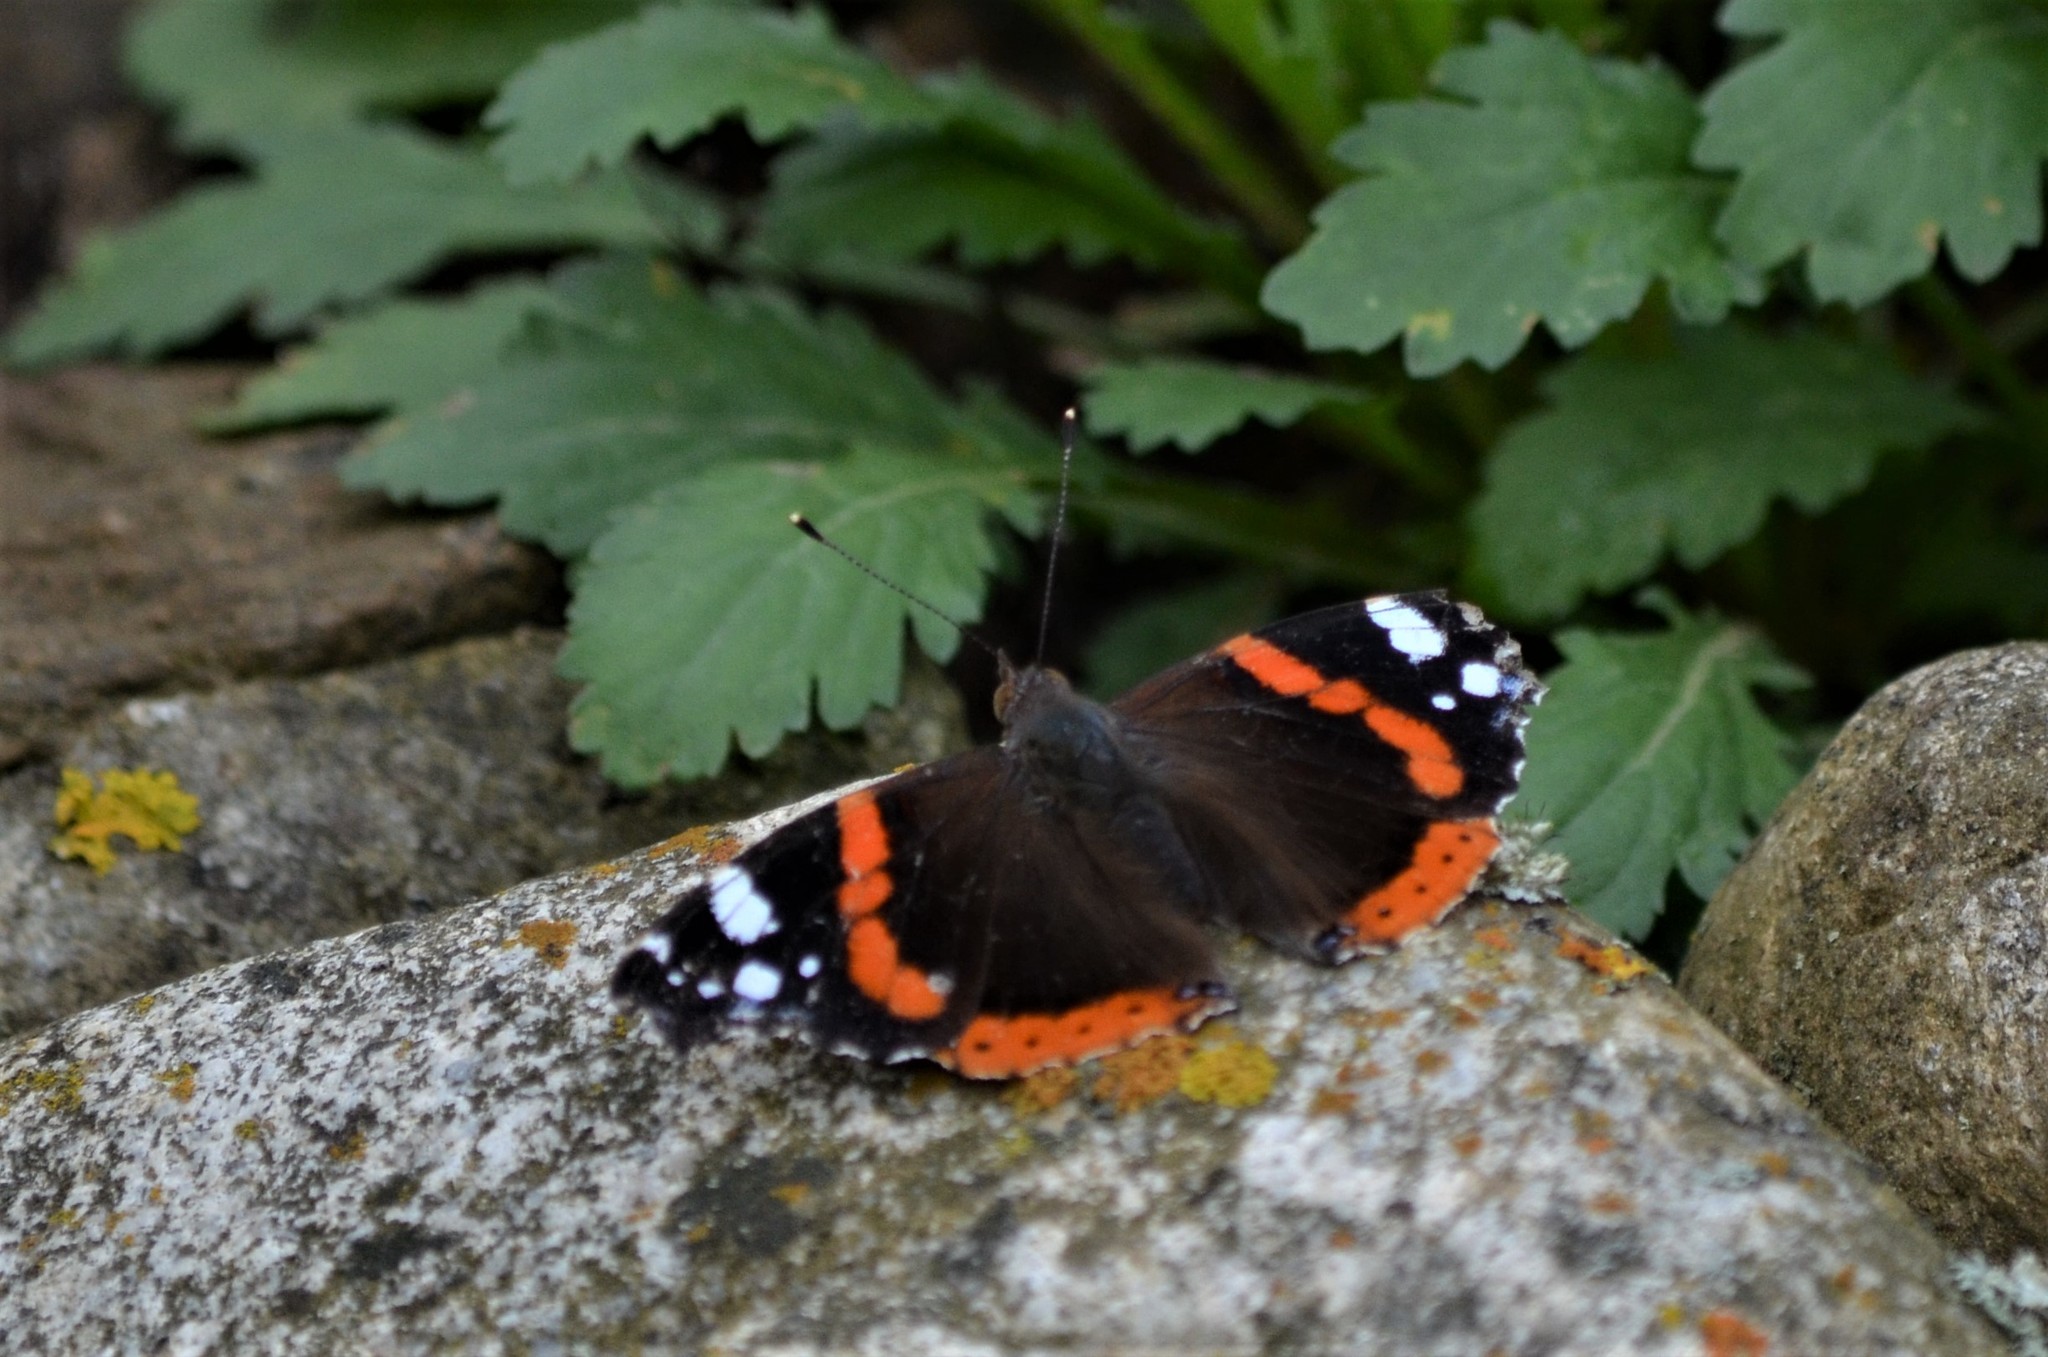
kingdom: Animalia
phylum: Arthropoda
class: Insecta
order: Lepidoptera
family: Nymphalidae
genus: Vanessa
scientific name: Vanessa atalanta
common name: Red admiral
